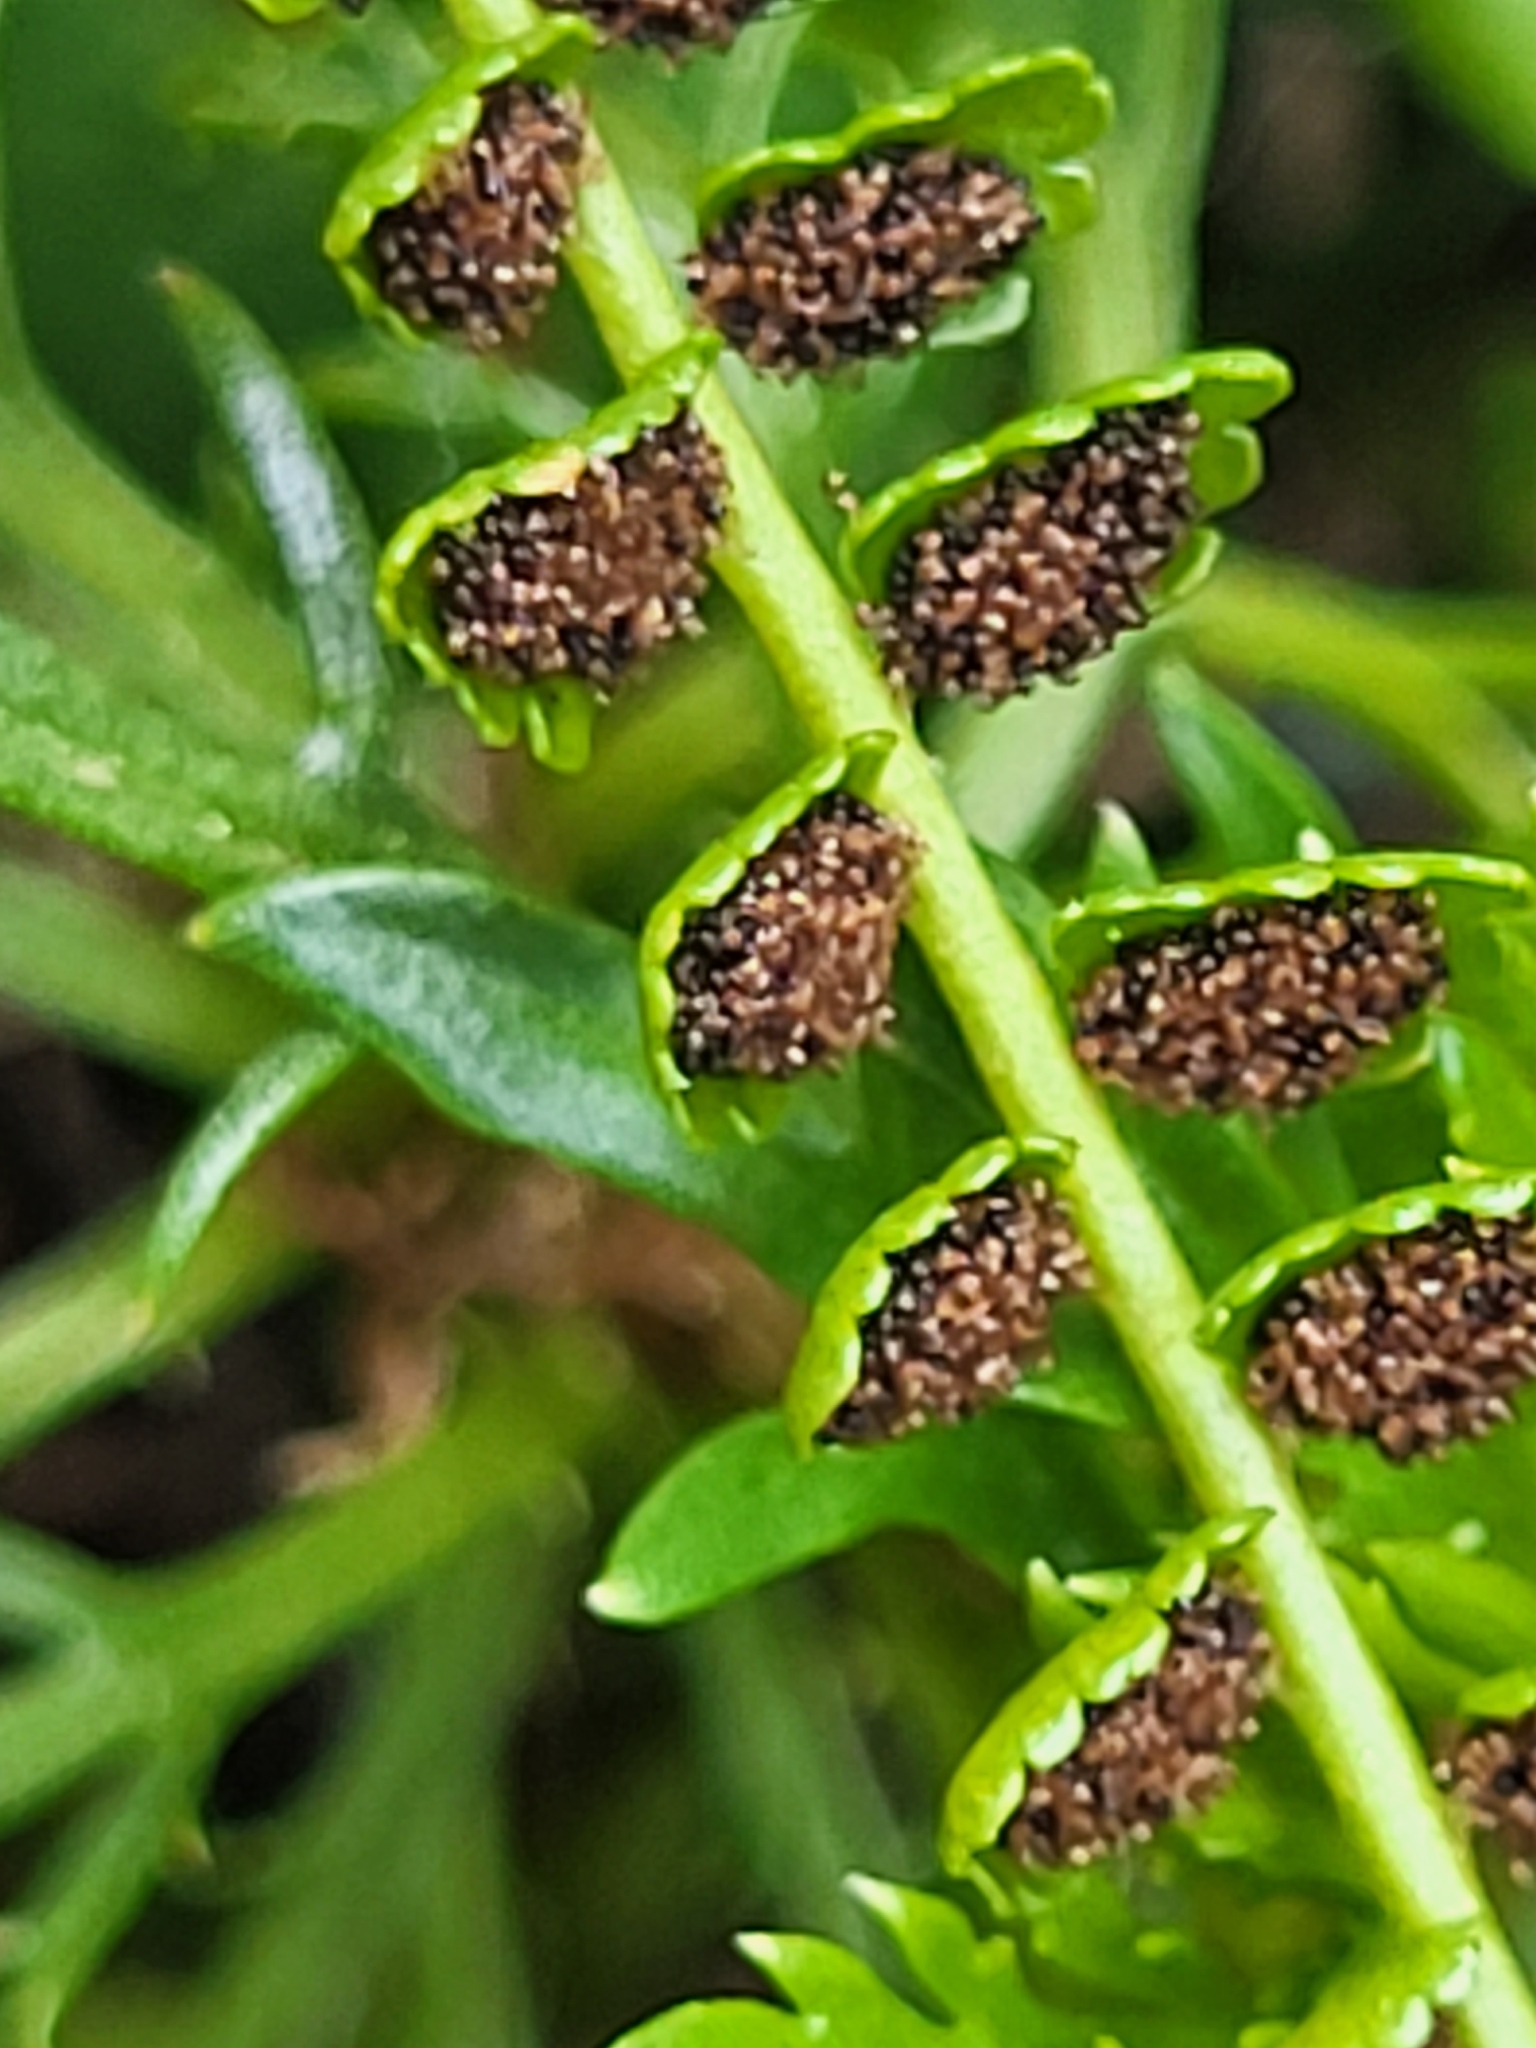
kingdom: Plantae
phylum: Tracheophyta
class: Polypodiopsida
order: Polypodiales
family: Aspleniaceae
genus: Asplenium
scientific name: Asplenium viride
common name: Green spleenwort
